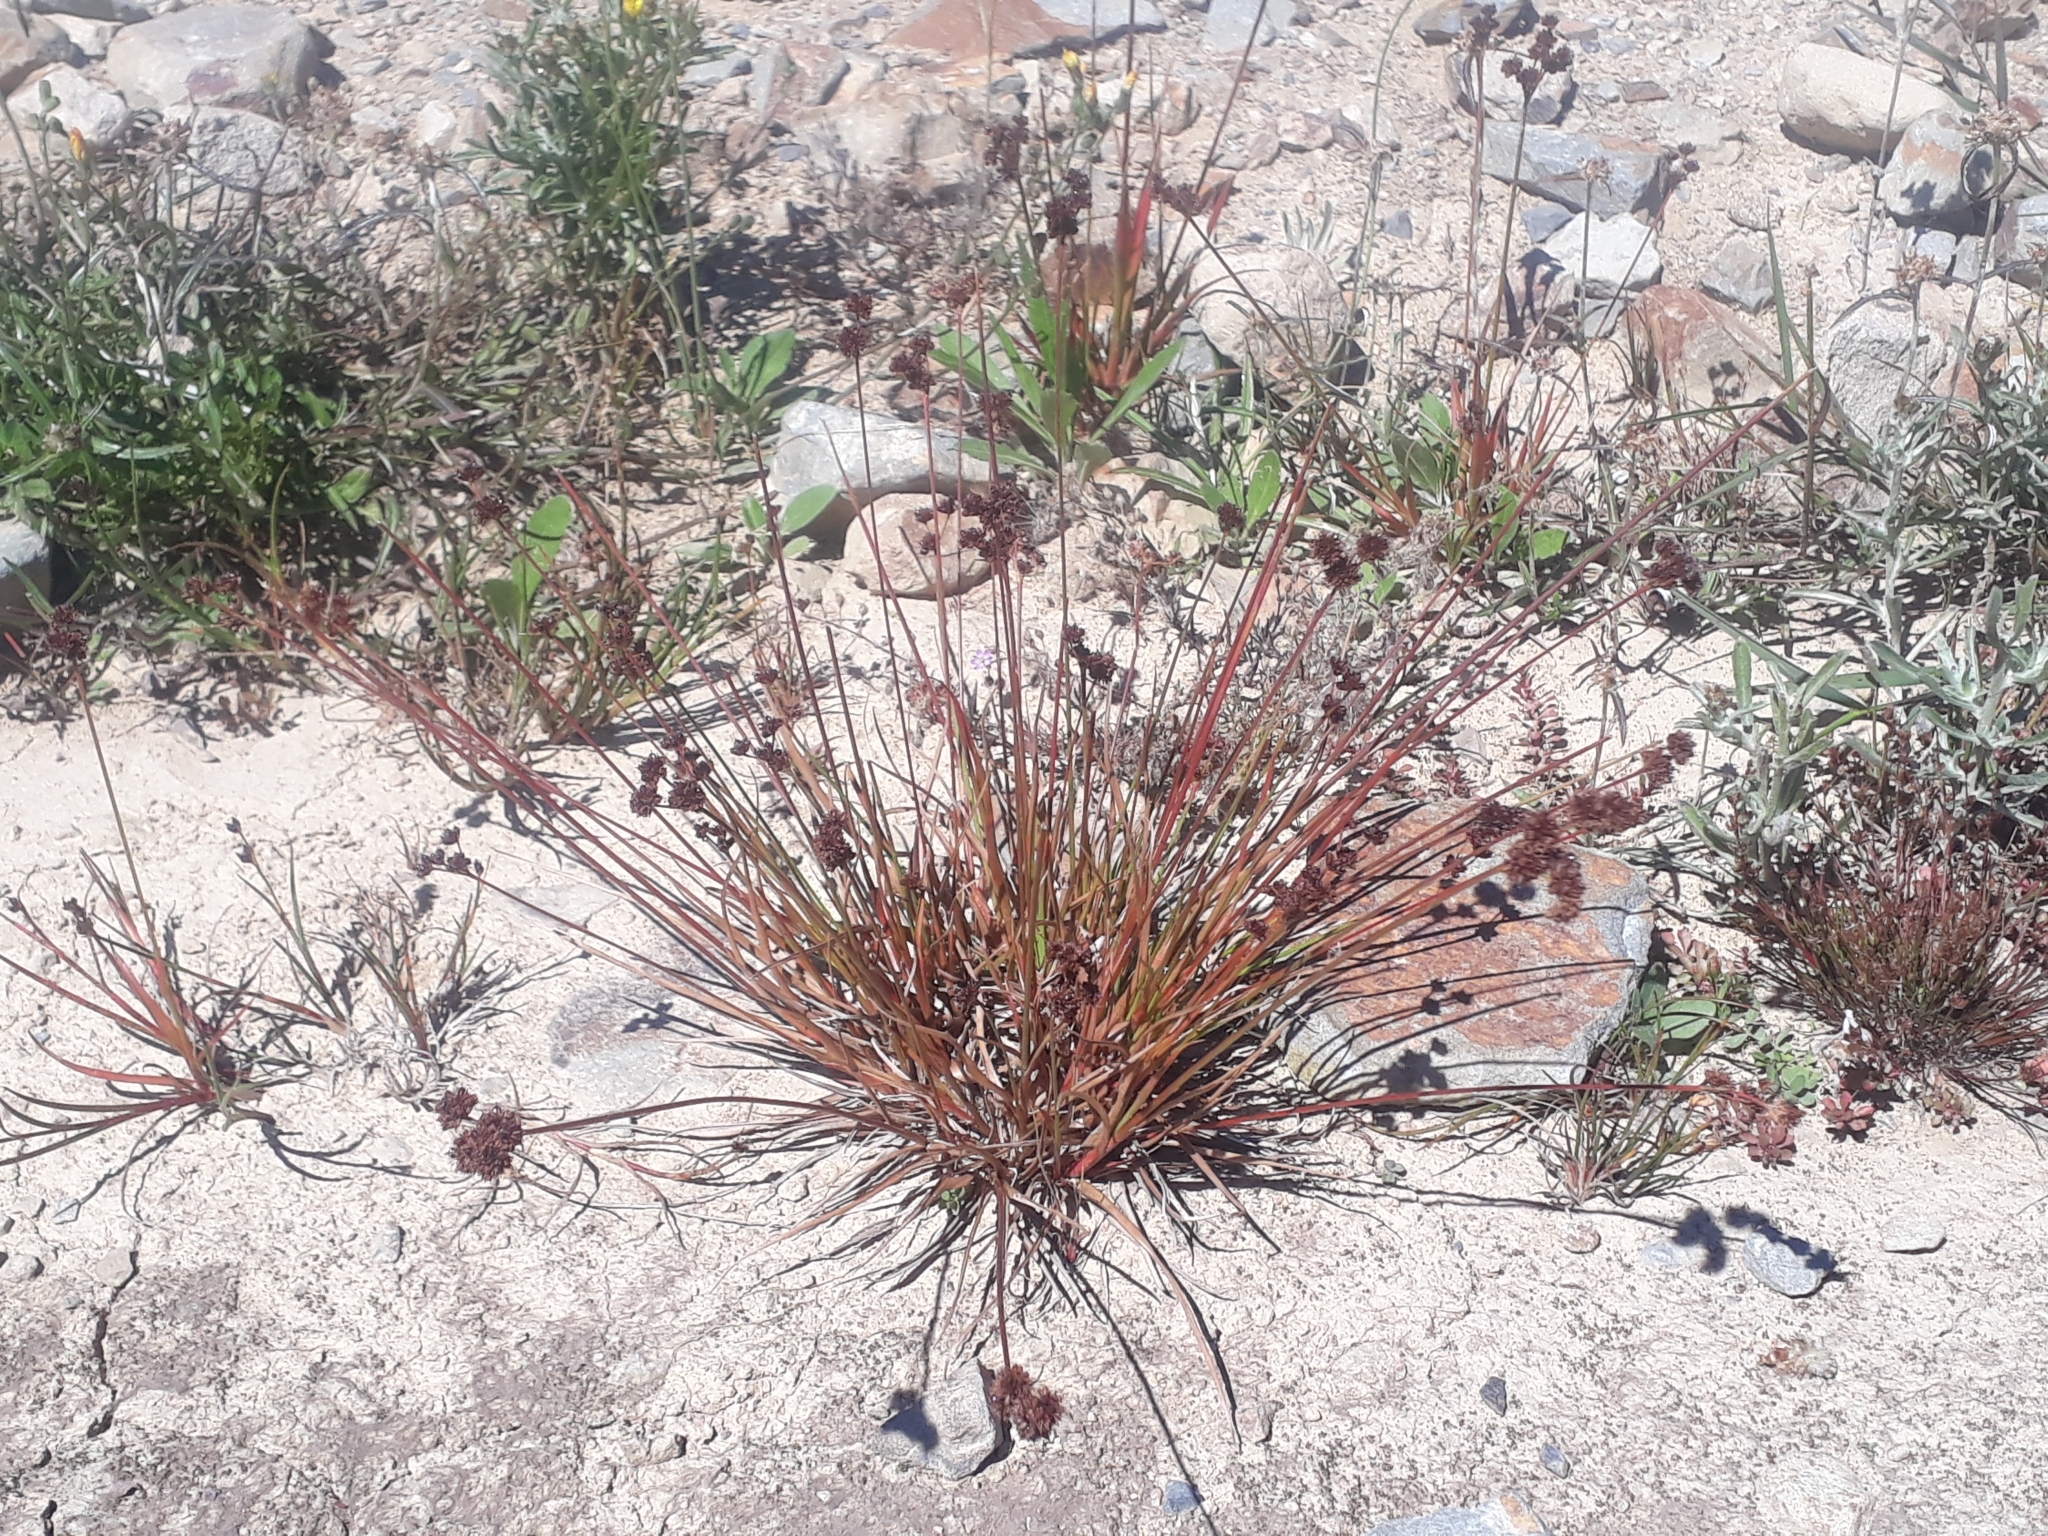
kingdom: Plantae
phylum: Tracheophyta
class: Liliopsida
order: Poales
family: Juncaceae
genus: Juncus
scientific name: Juncus planifolius
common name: Broadleaf rush
